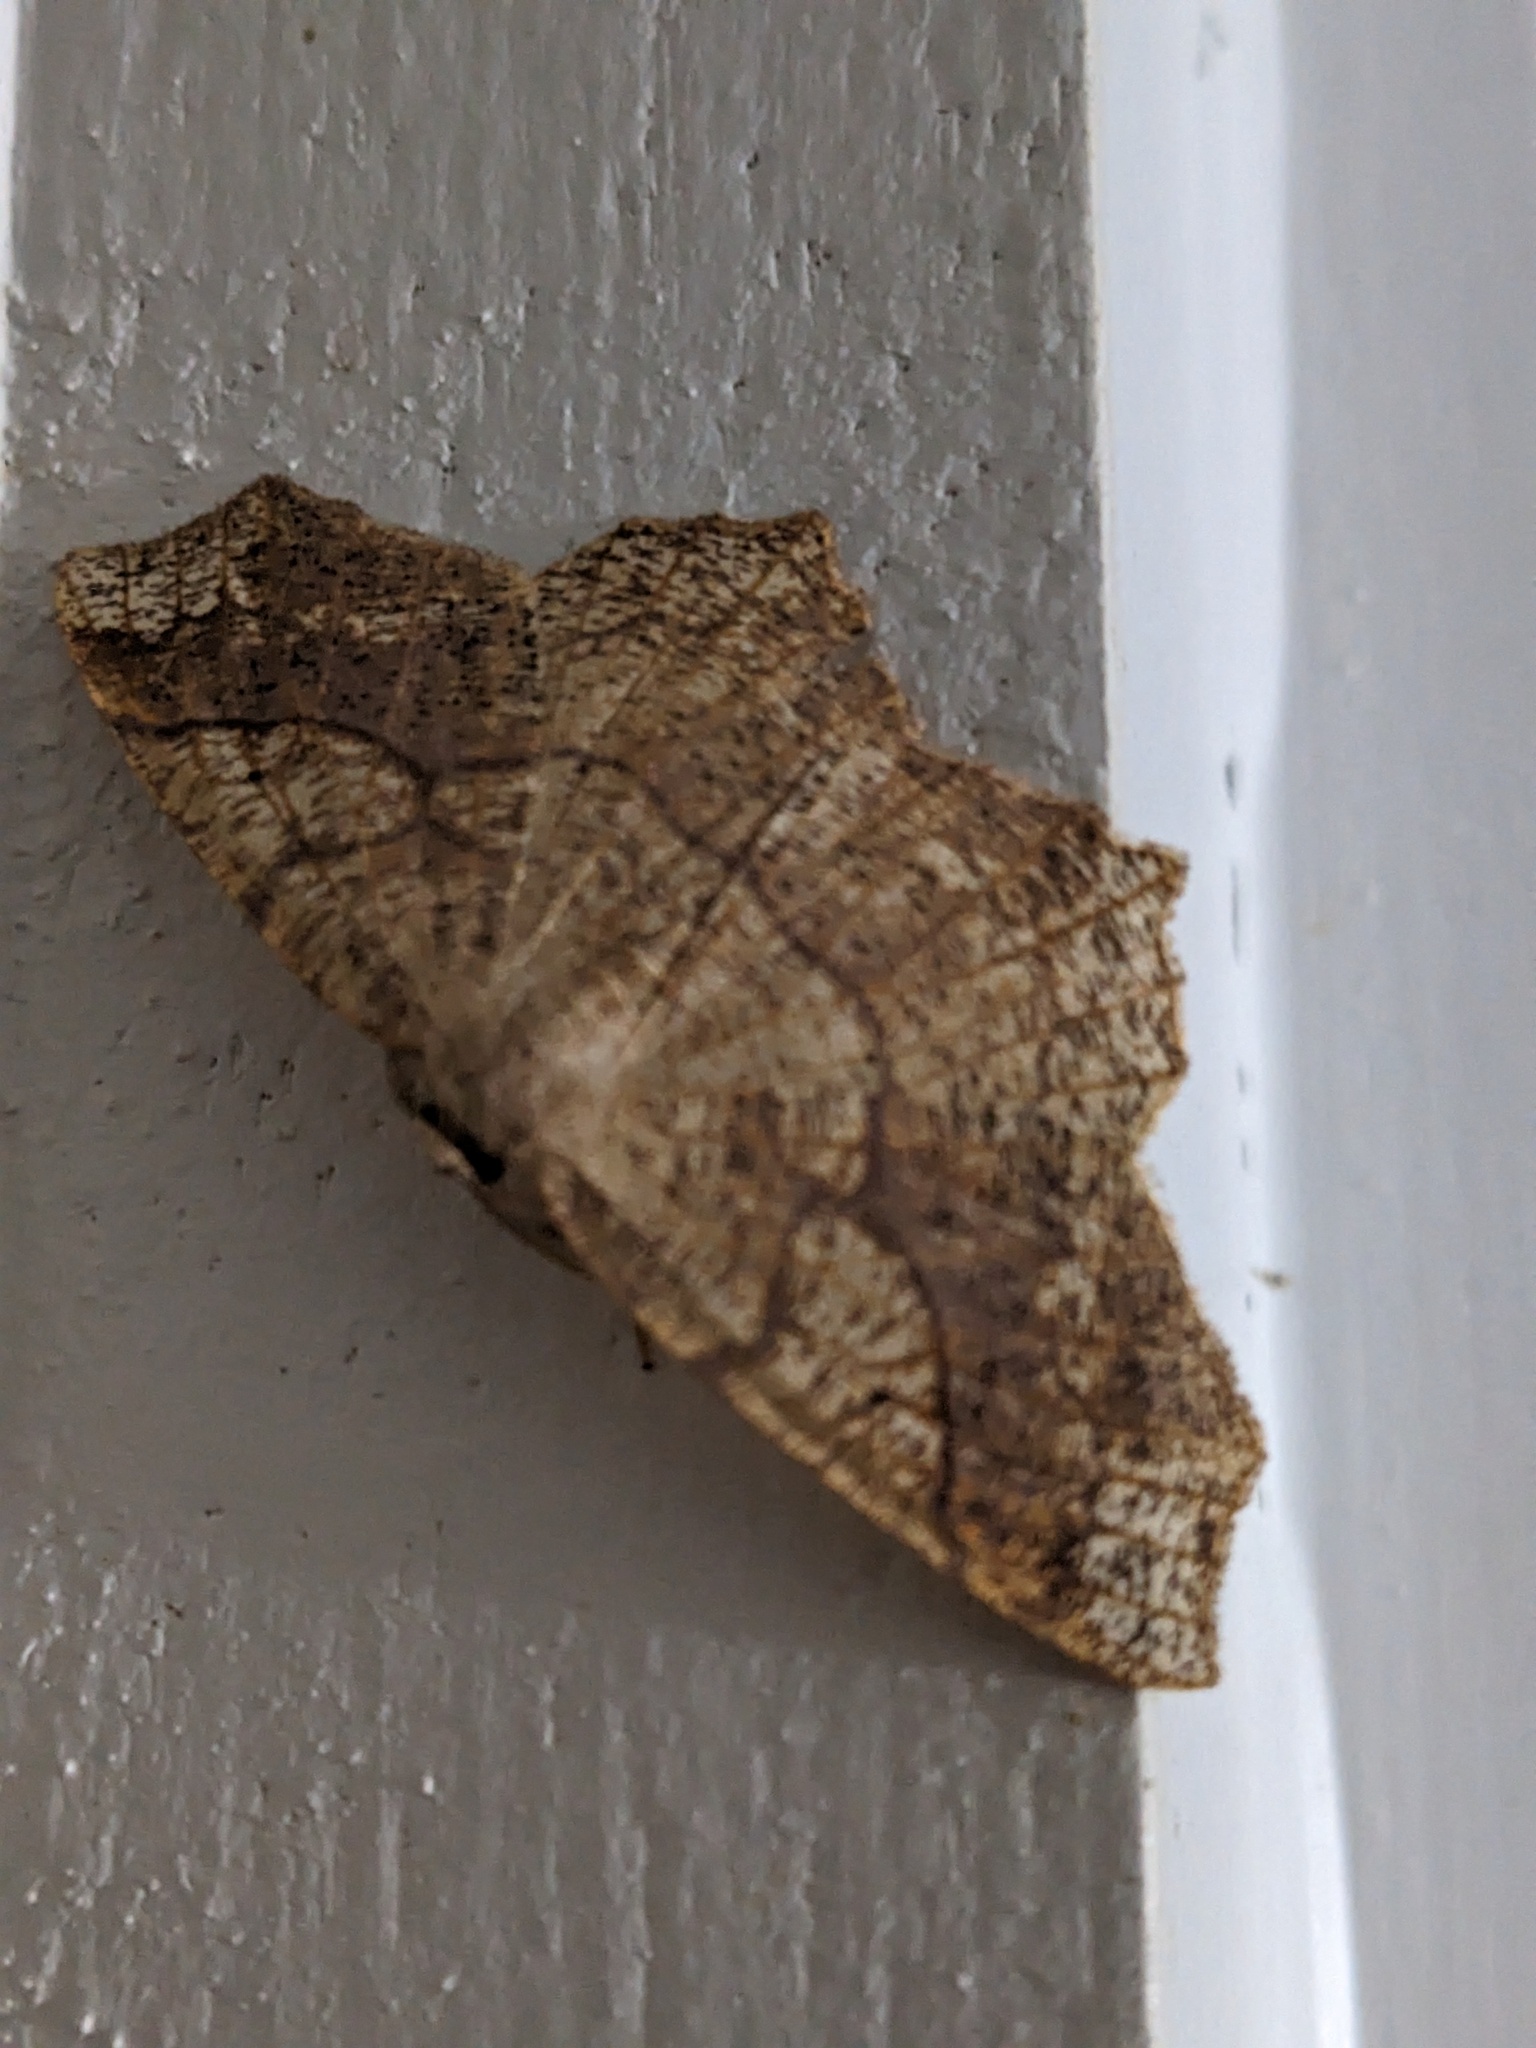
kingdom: Animalia
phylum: Arthropoda
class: Insecta
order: Lepidoptera
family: Geometridae
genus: Besma
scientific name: Besma quercivoraria
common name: Oak besma
